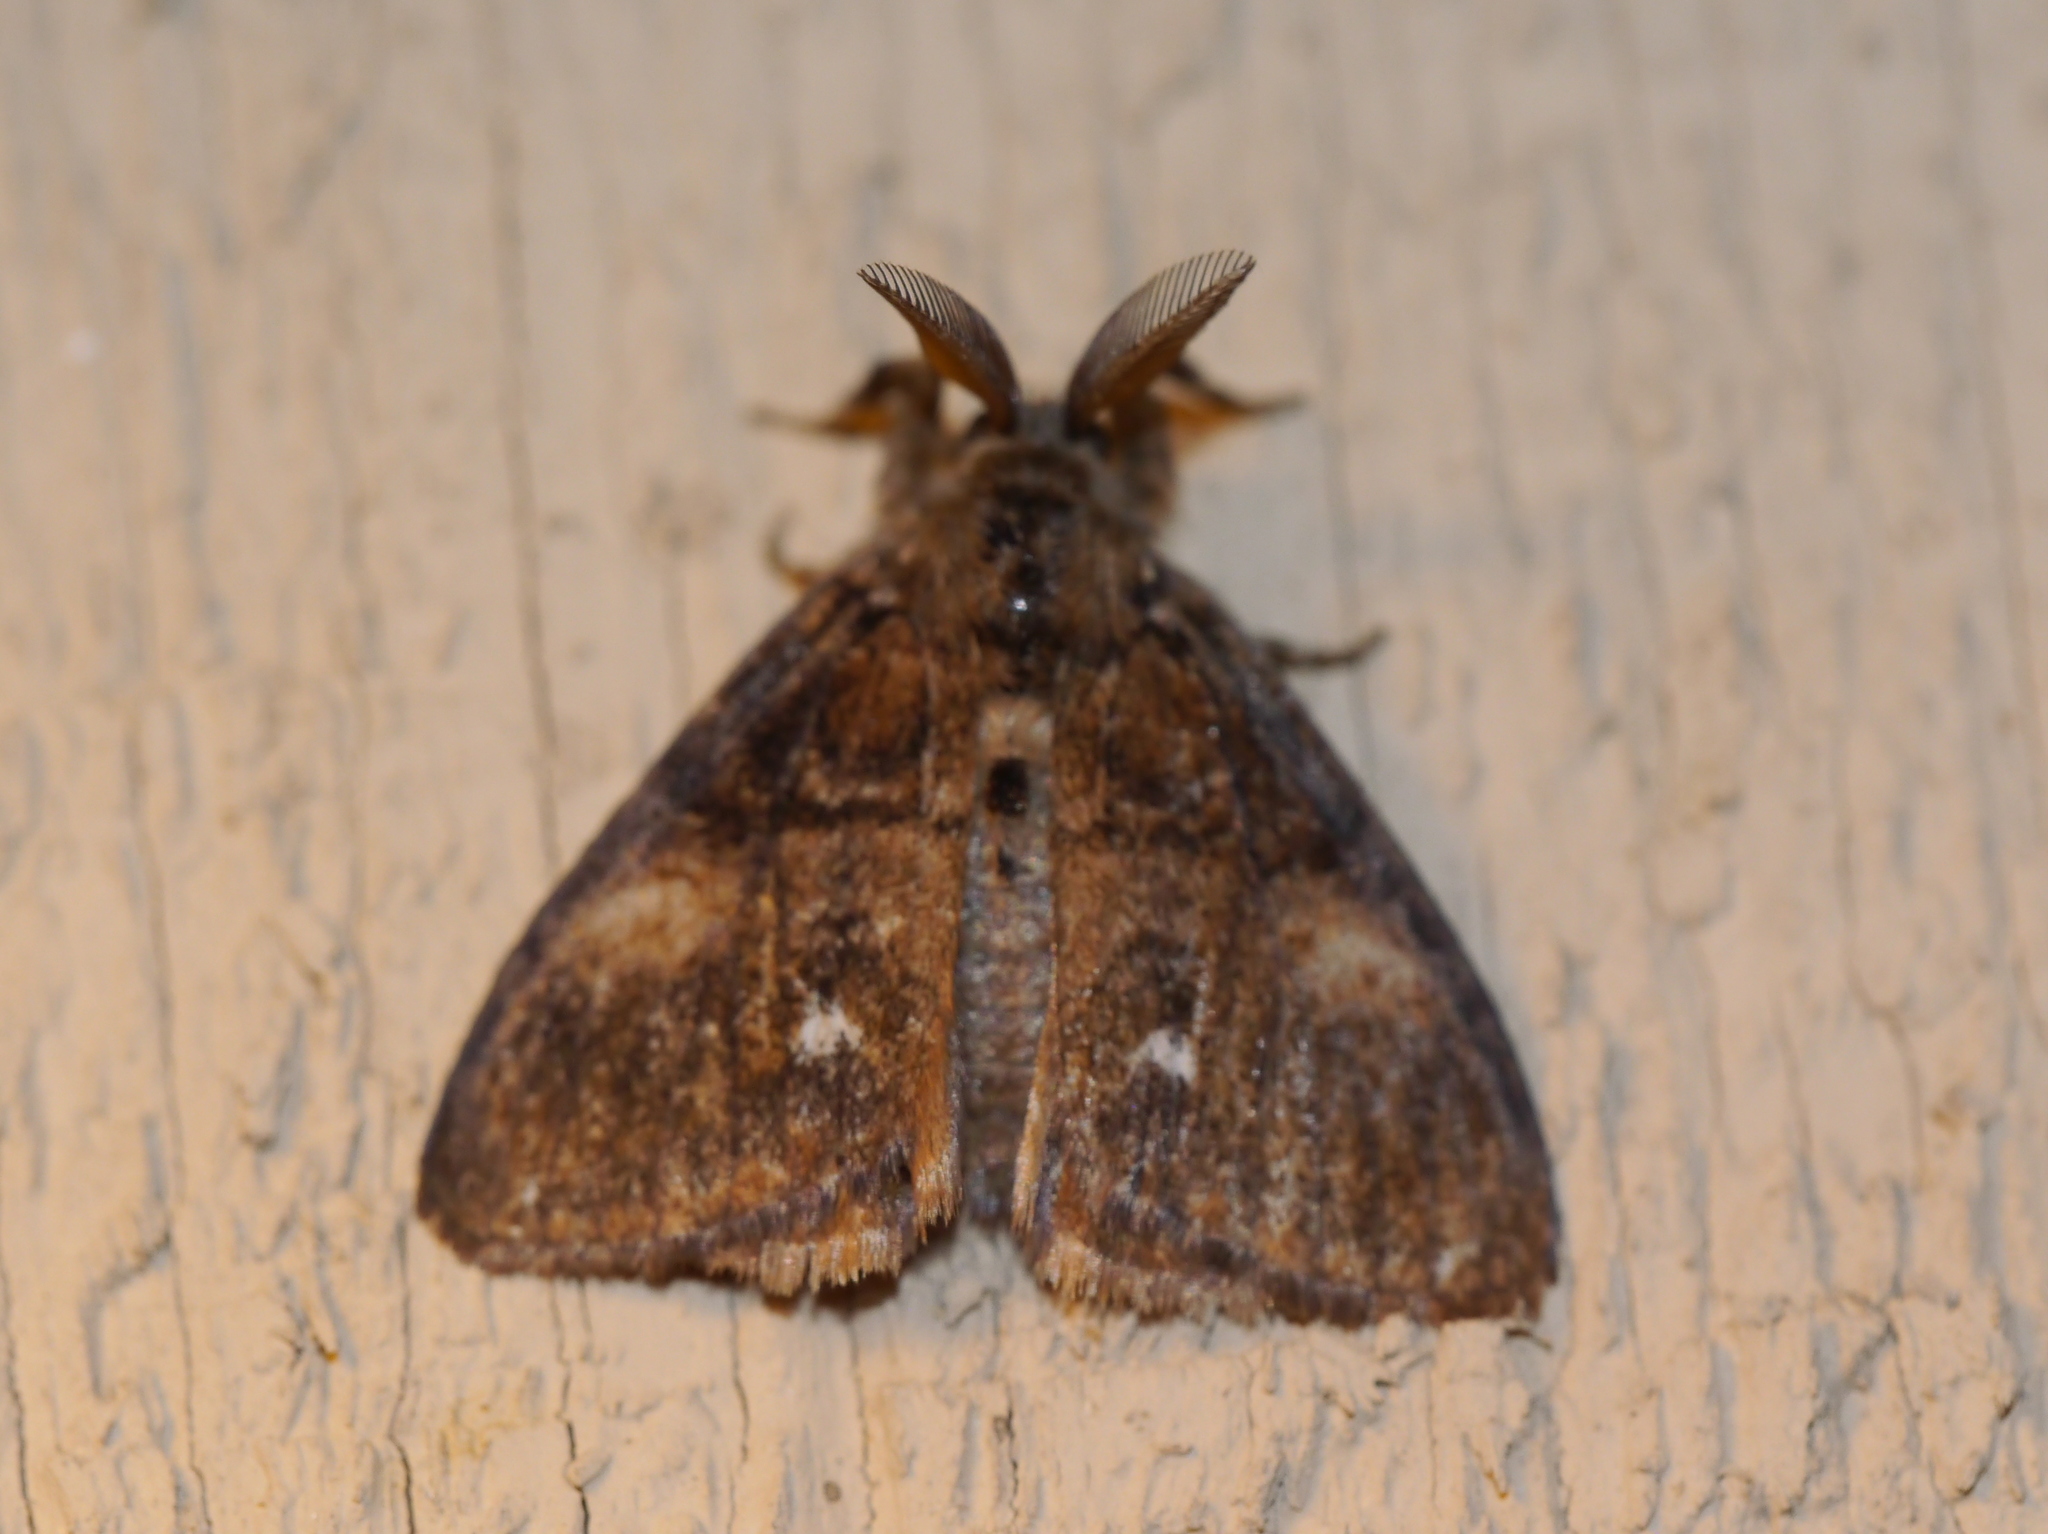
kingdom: Animalia
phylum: Arthropoda
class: Insecta
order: Lepidoptera
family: Erebidae
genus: Orgyia
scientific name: Orgyia vetusta
